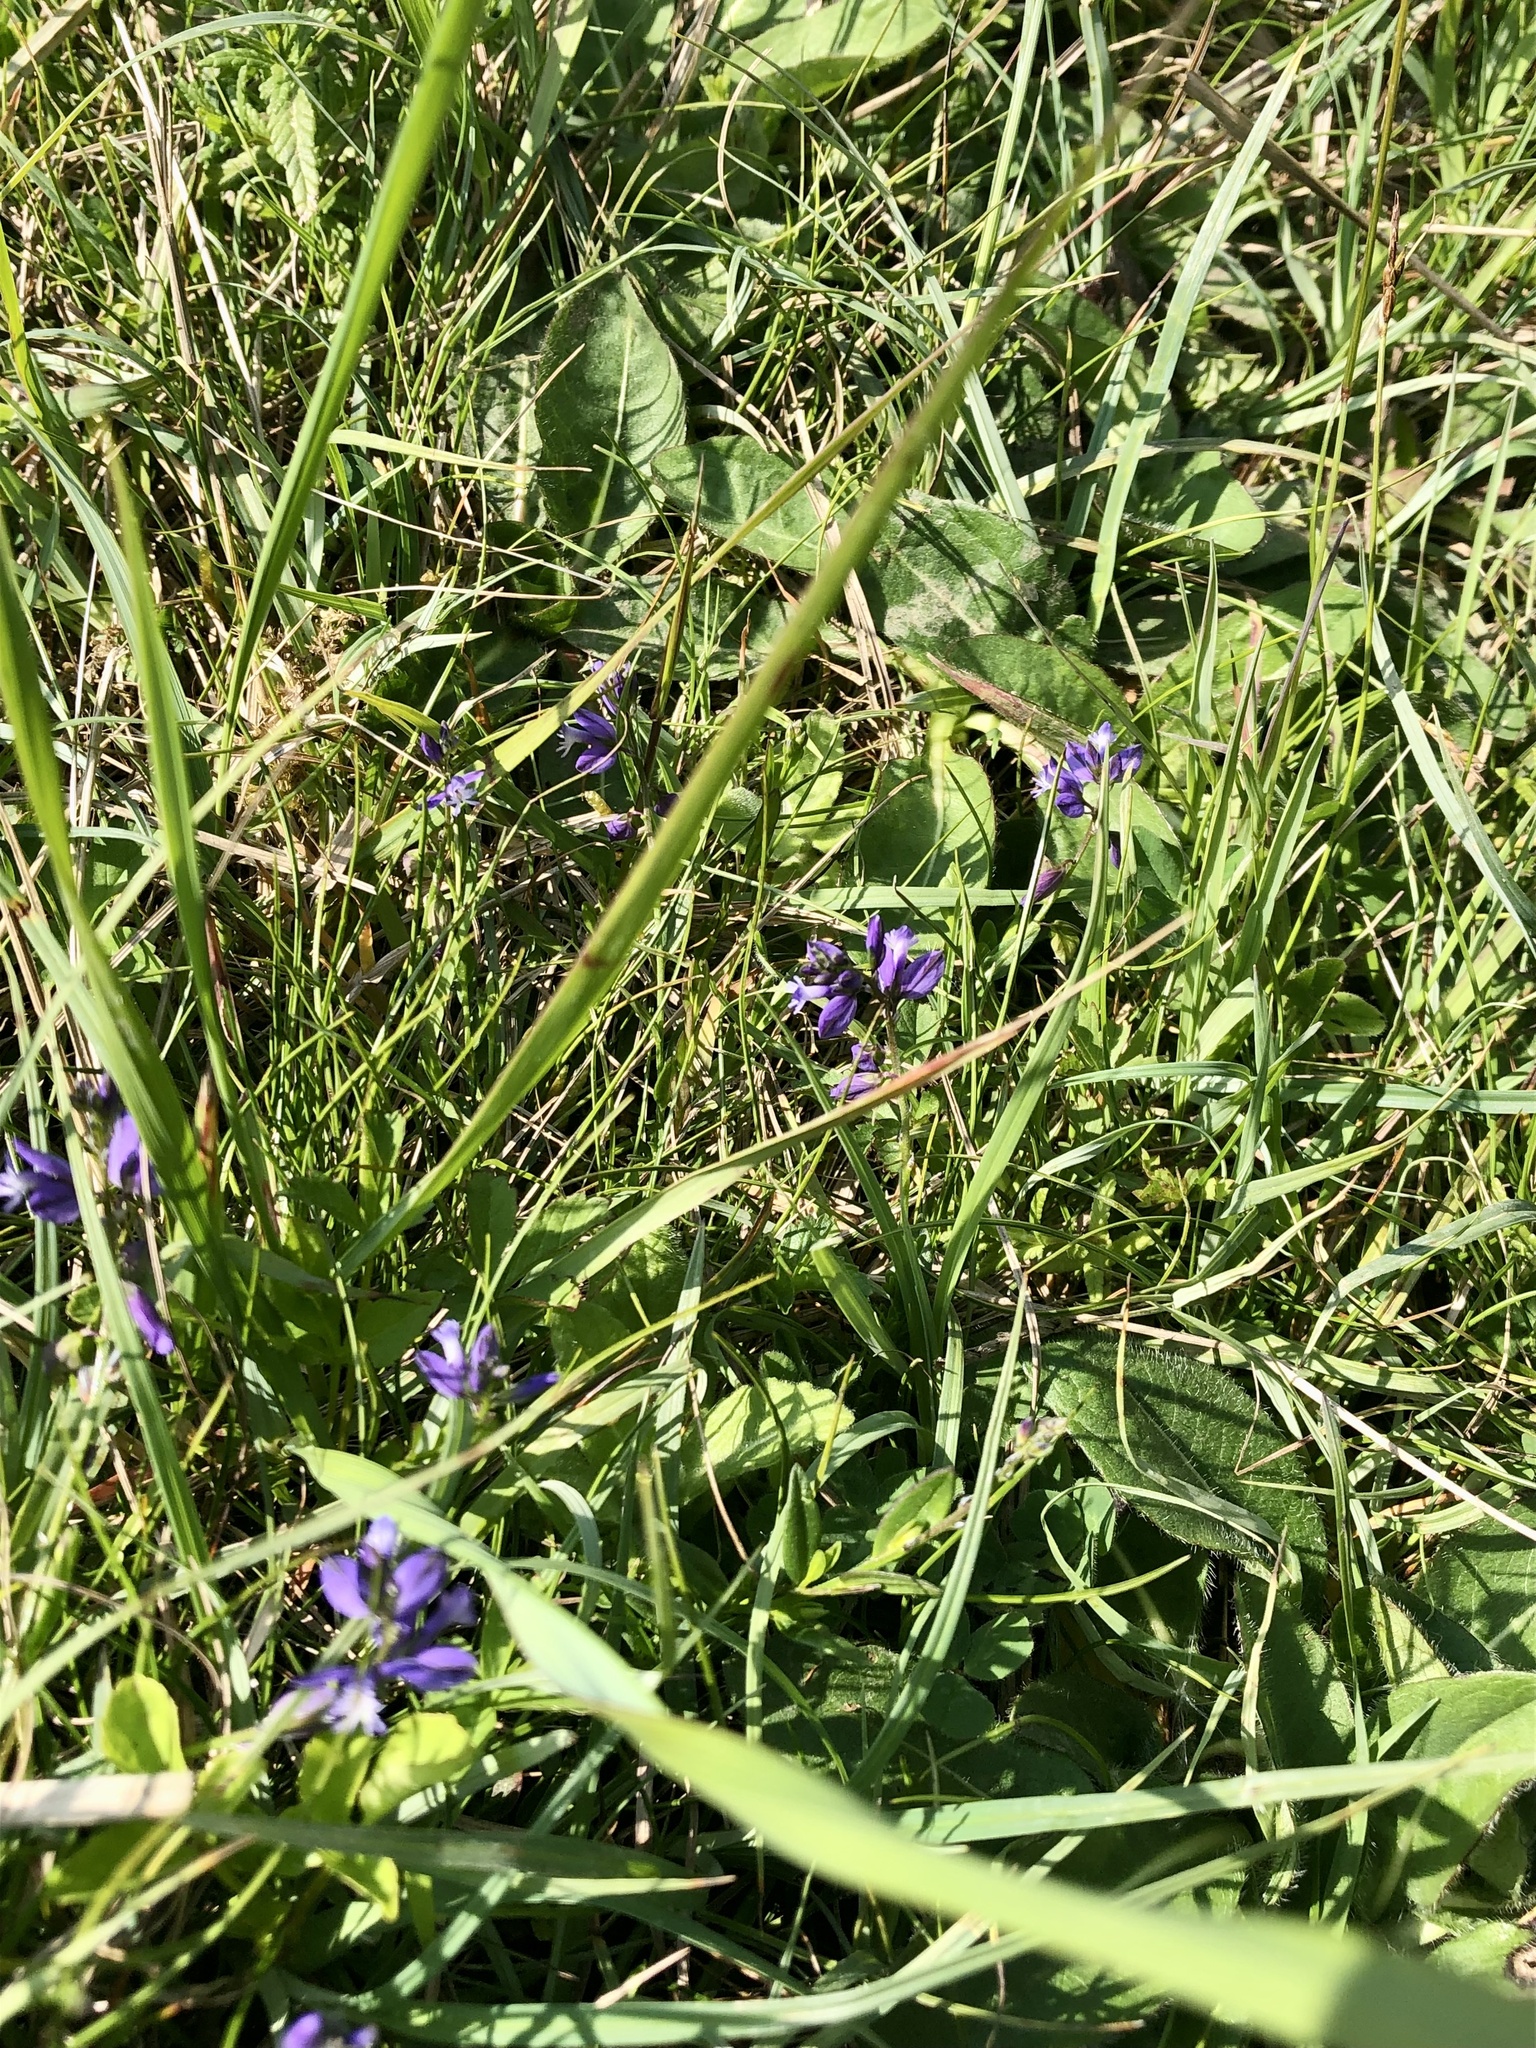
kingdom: Plantae
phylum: Tracheophyta
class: Magnoliopsida
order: Fabales
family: Polygalaceae
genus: Polygala
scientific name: Polygala vulgaris
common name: Common milkwort
